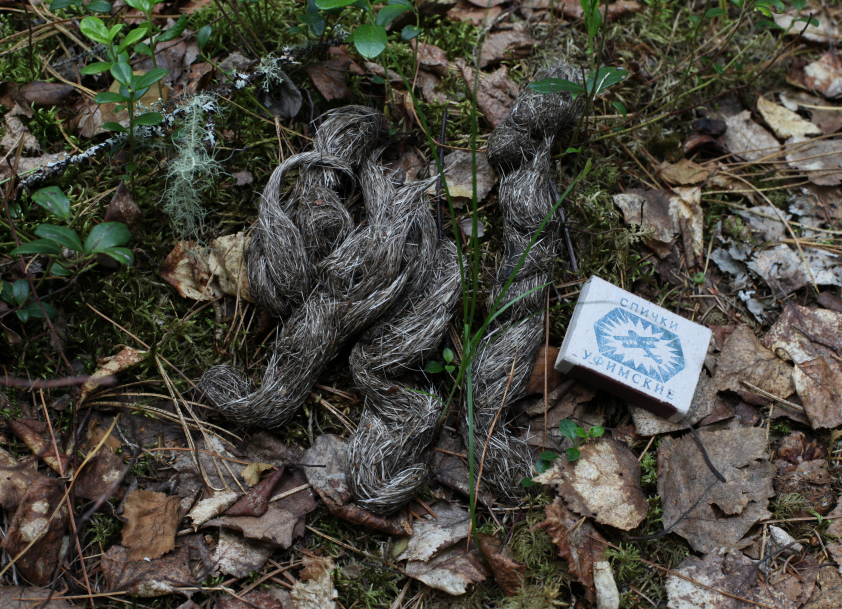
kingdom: Animalia
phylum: Chordata
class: Mammalia
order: Carnivora
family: Canidae
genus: Canis
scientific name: Canis lupus
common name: Gray wolf
